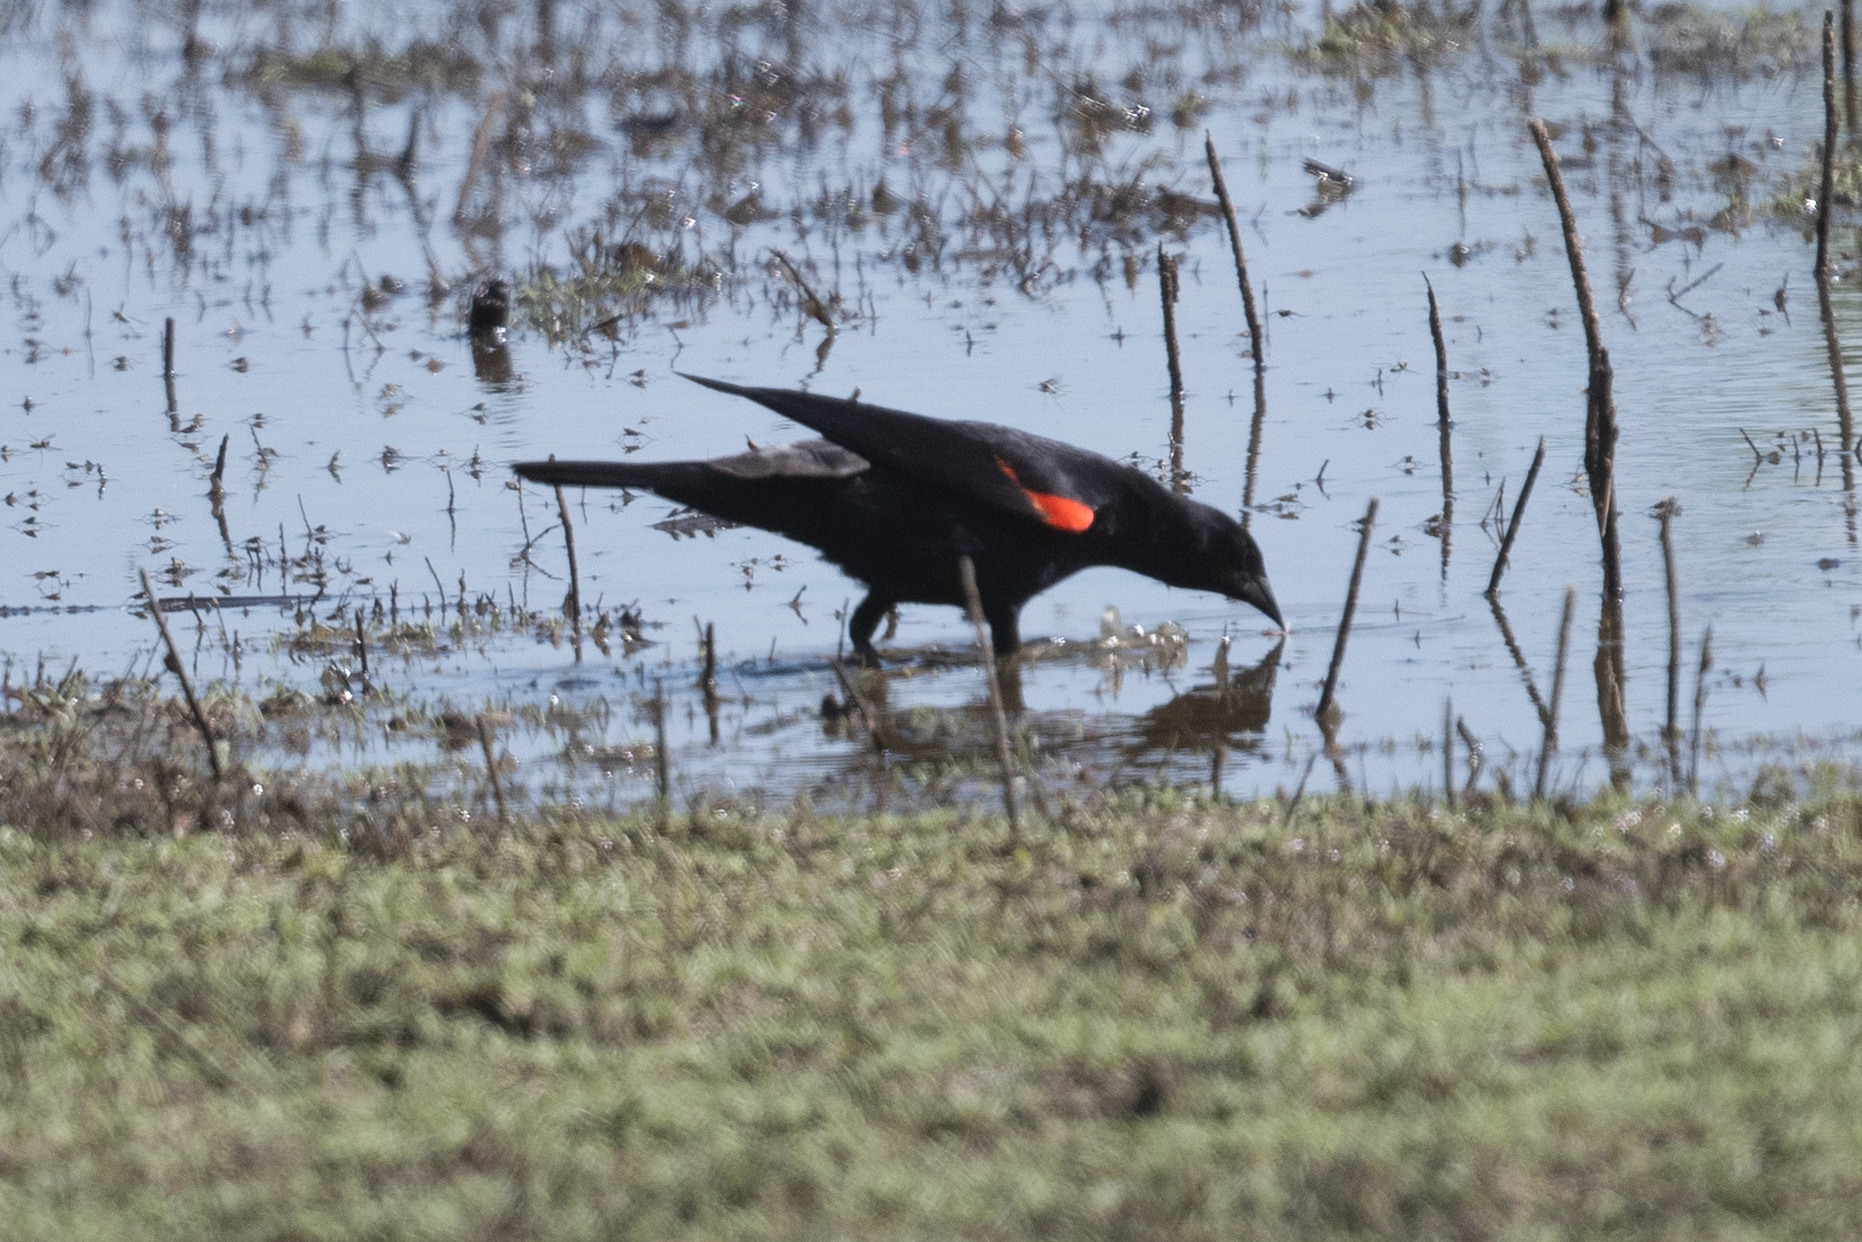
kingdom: Animalia
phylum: Chordata
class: Aves
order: Passeriformes
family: Icteridae
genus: Agelaius
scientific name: Agelaius phoeniceus
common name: Red-winged blackbird
